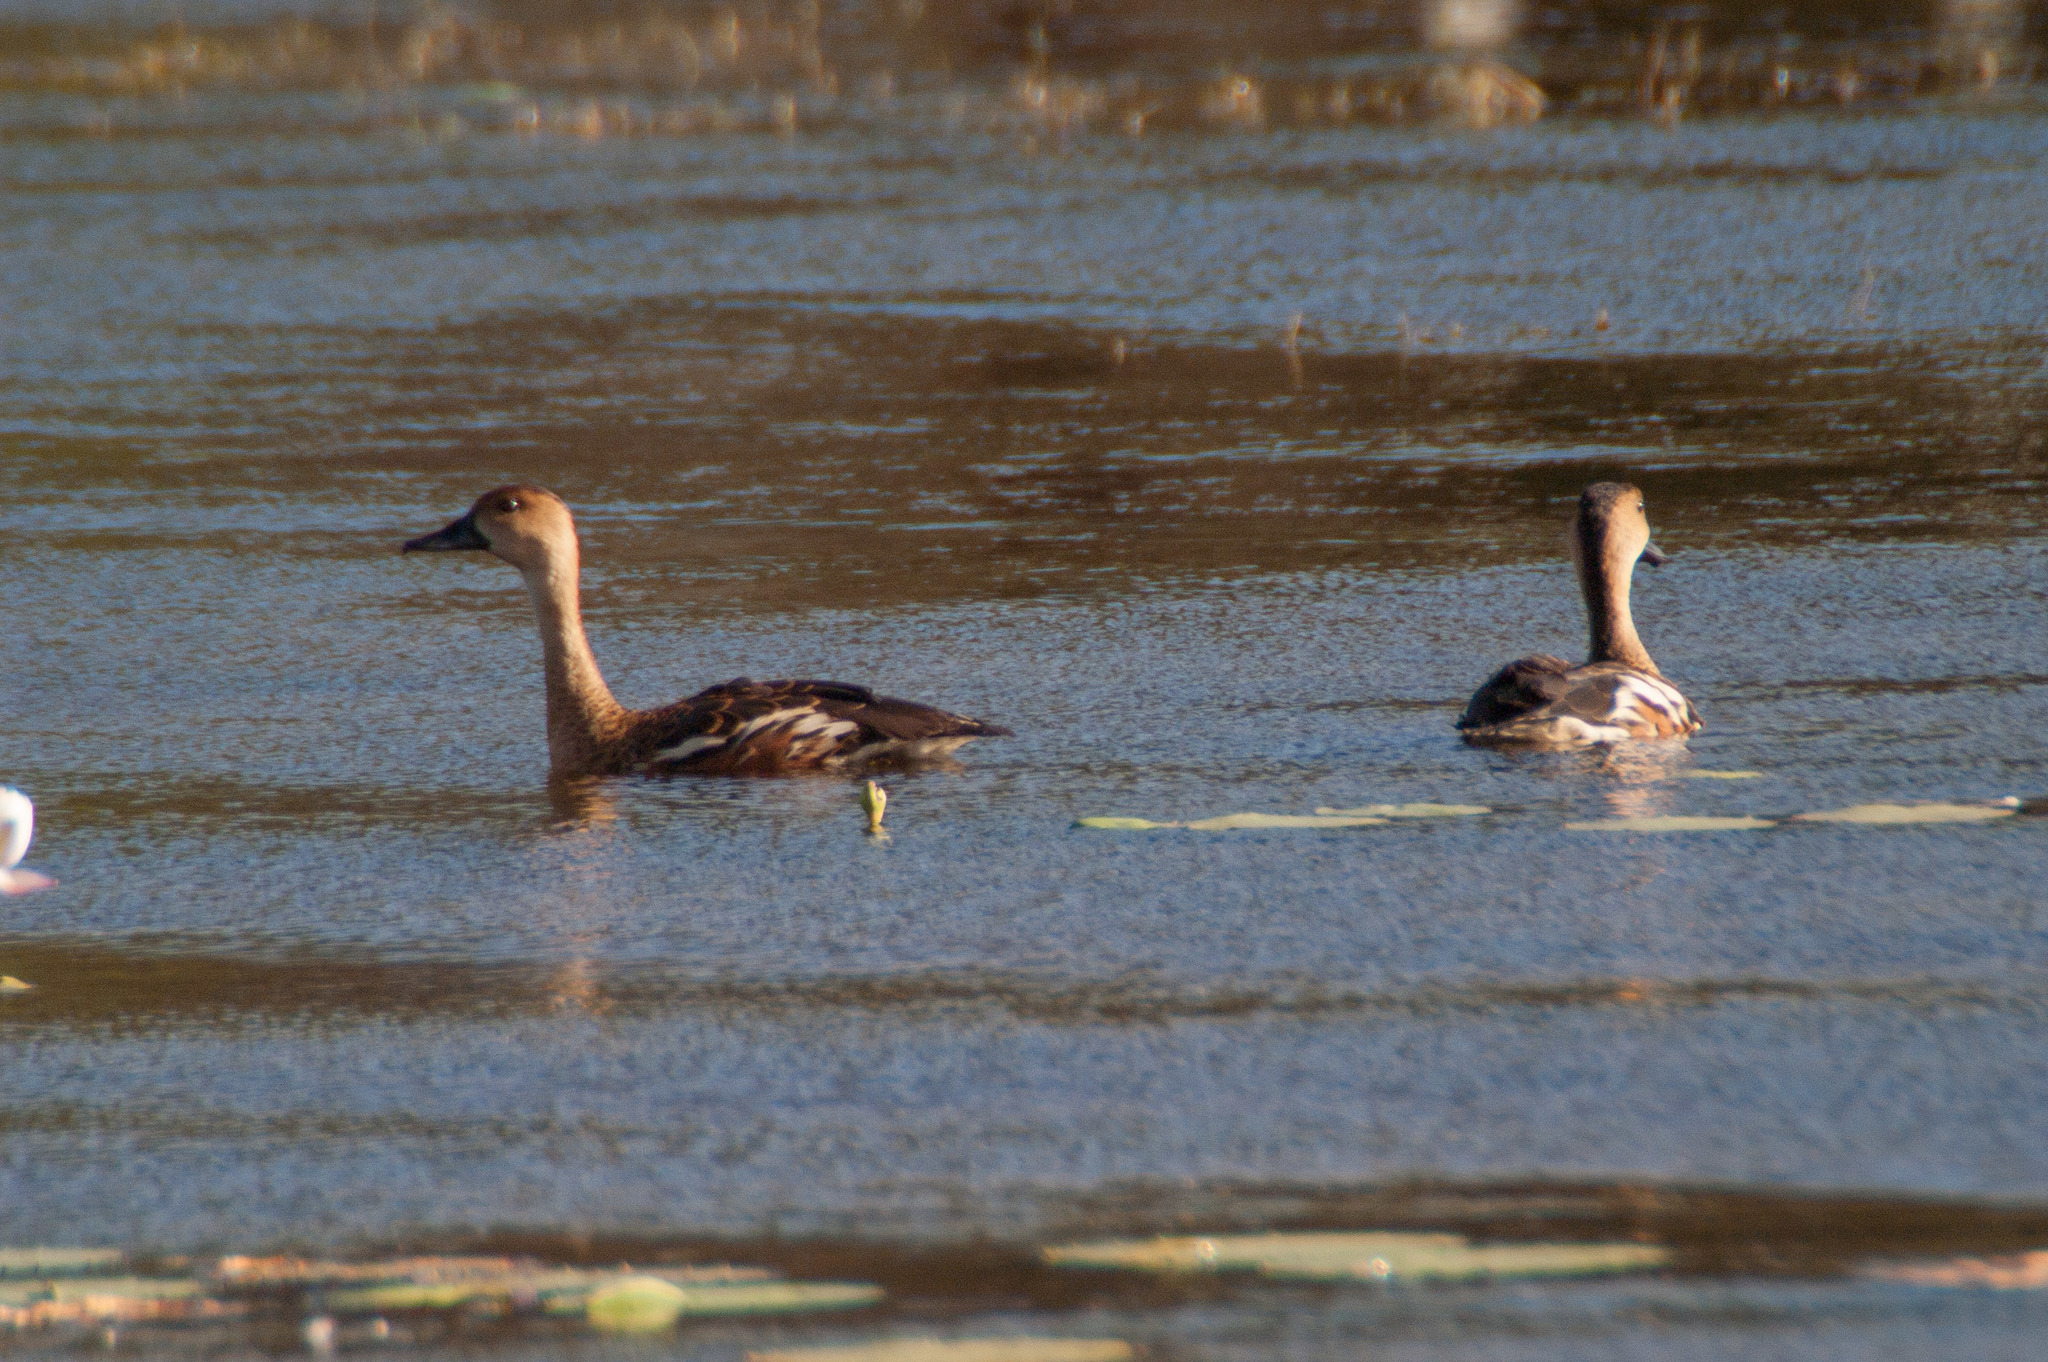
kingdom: Animalia
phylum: Chordata
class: Aves
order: Anseriformes
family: Anatidae
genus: Dendrocygna
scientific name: Dendrocygna arcuata
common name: Wandering whistling-duck
